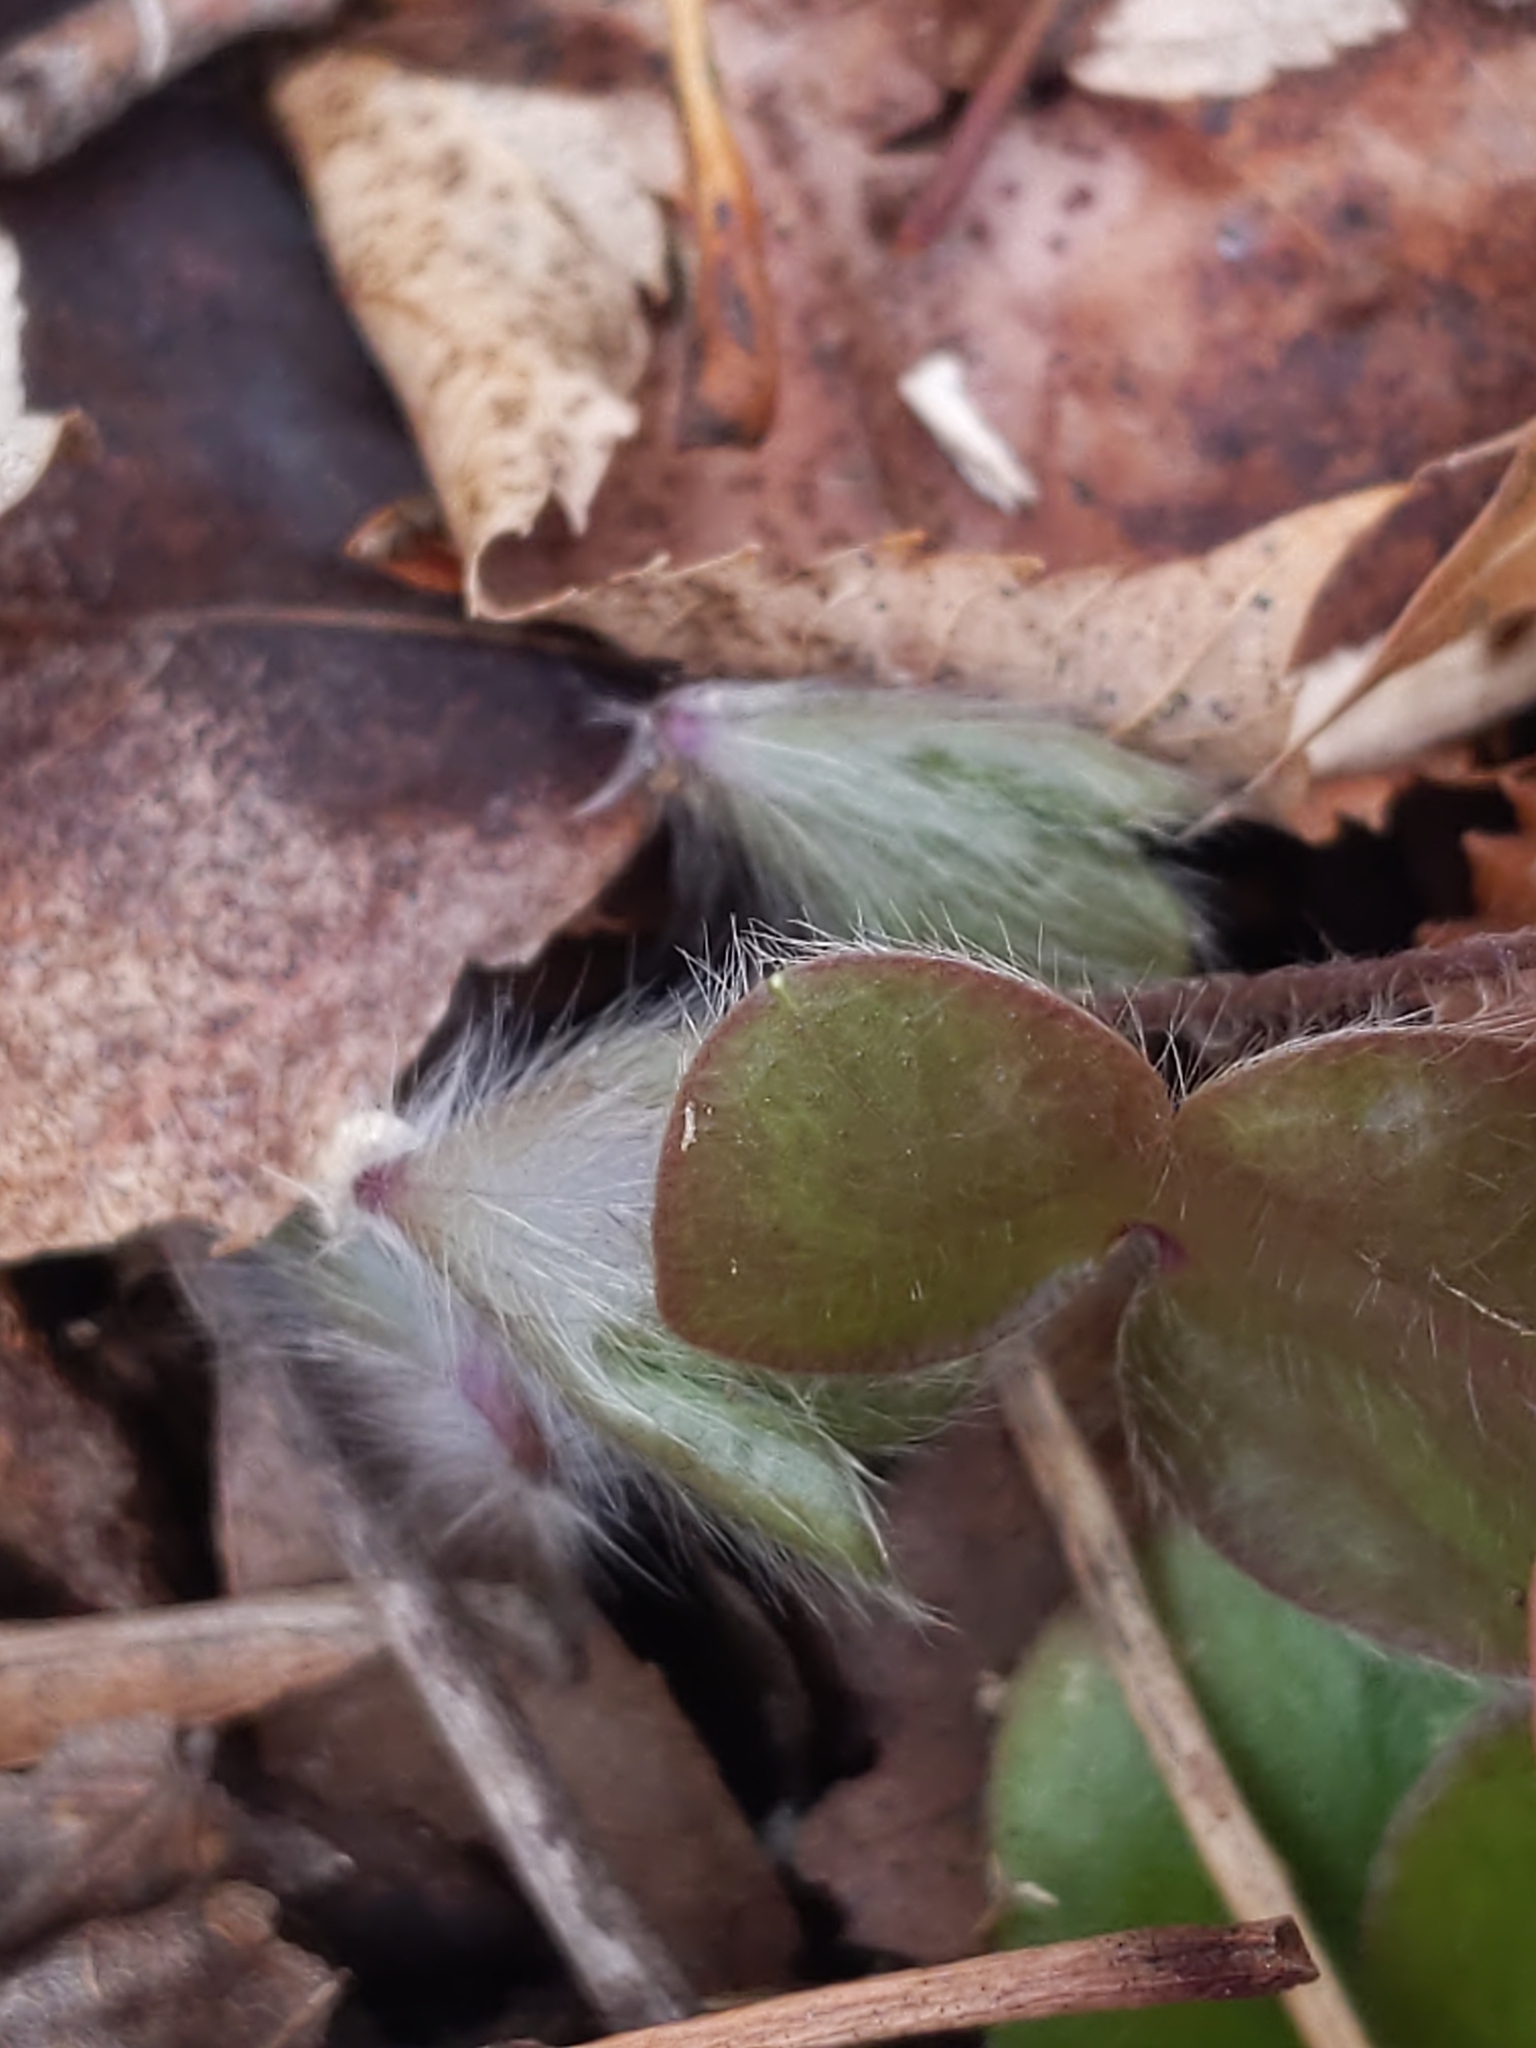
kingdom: Plantae
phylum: Tracheophyta
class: Magnoliopsida
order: Ranunculales
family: Ranunculaceae
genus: Hepatica
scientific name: Hepatica americana
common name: American hepatica
